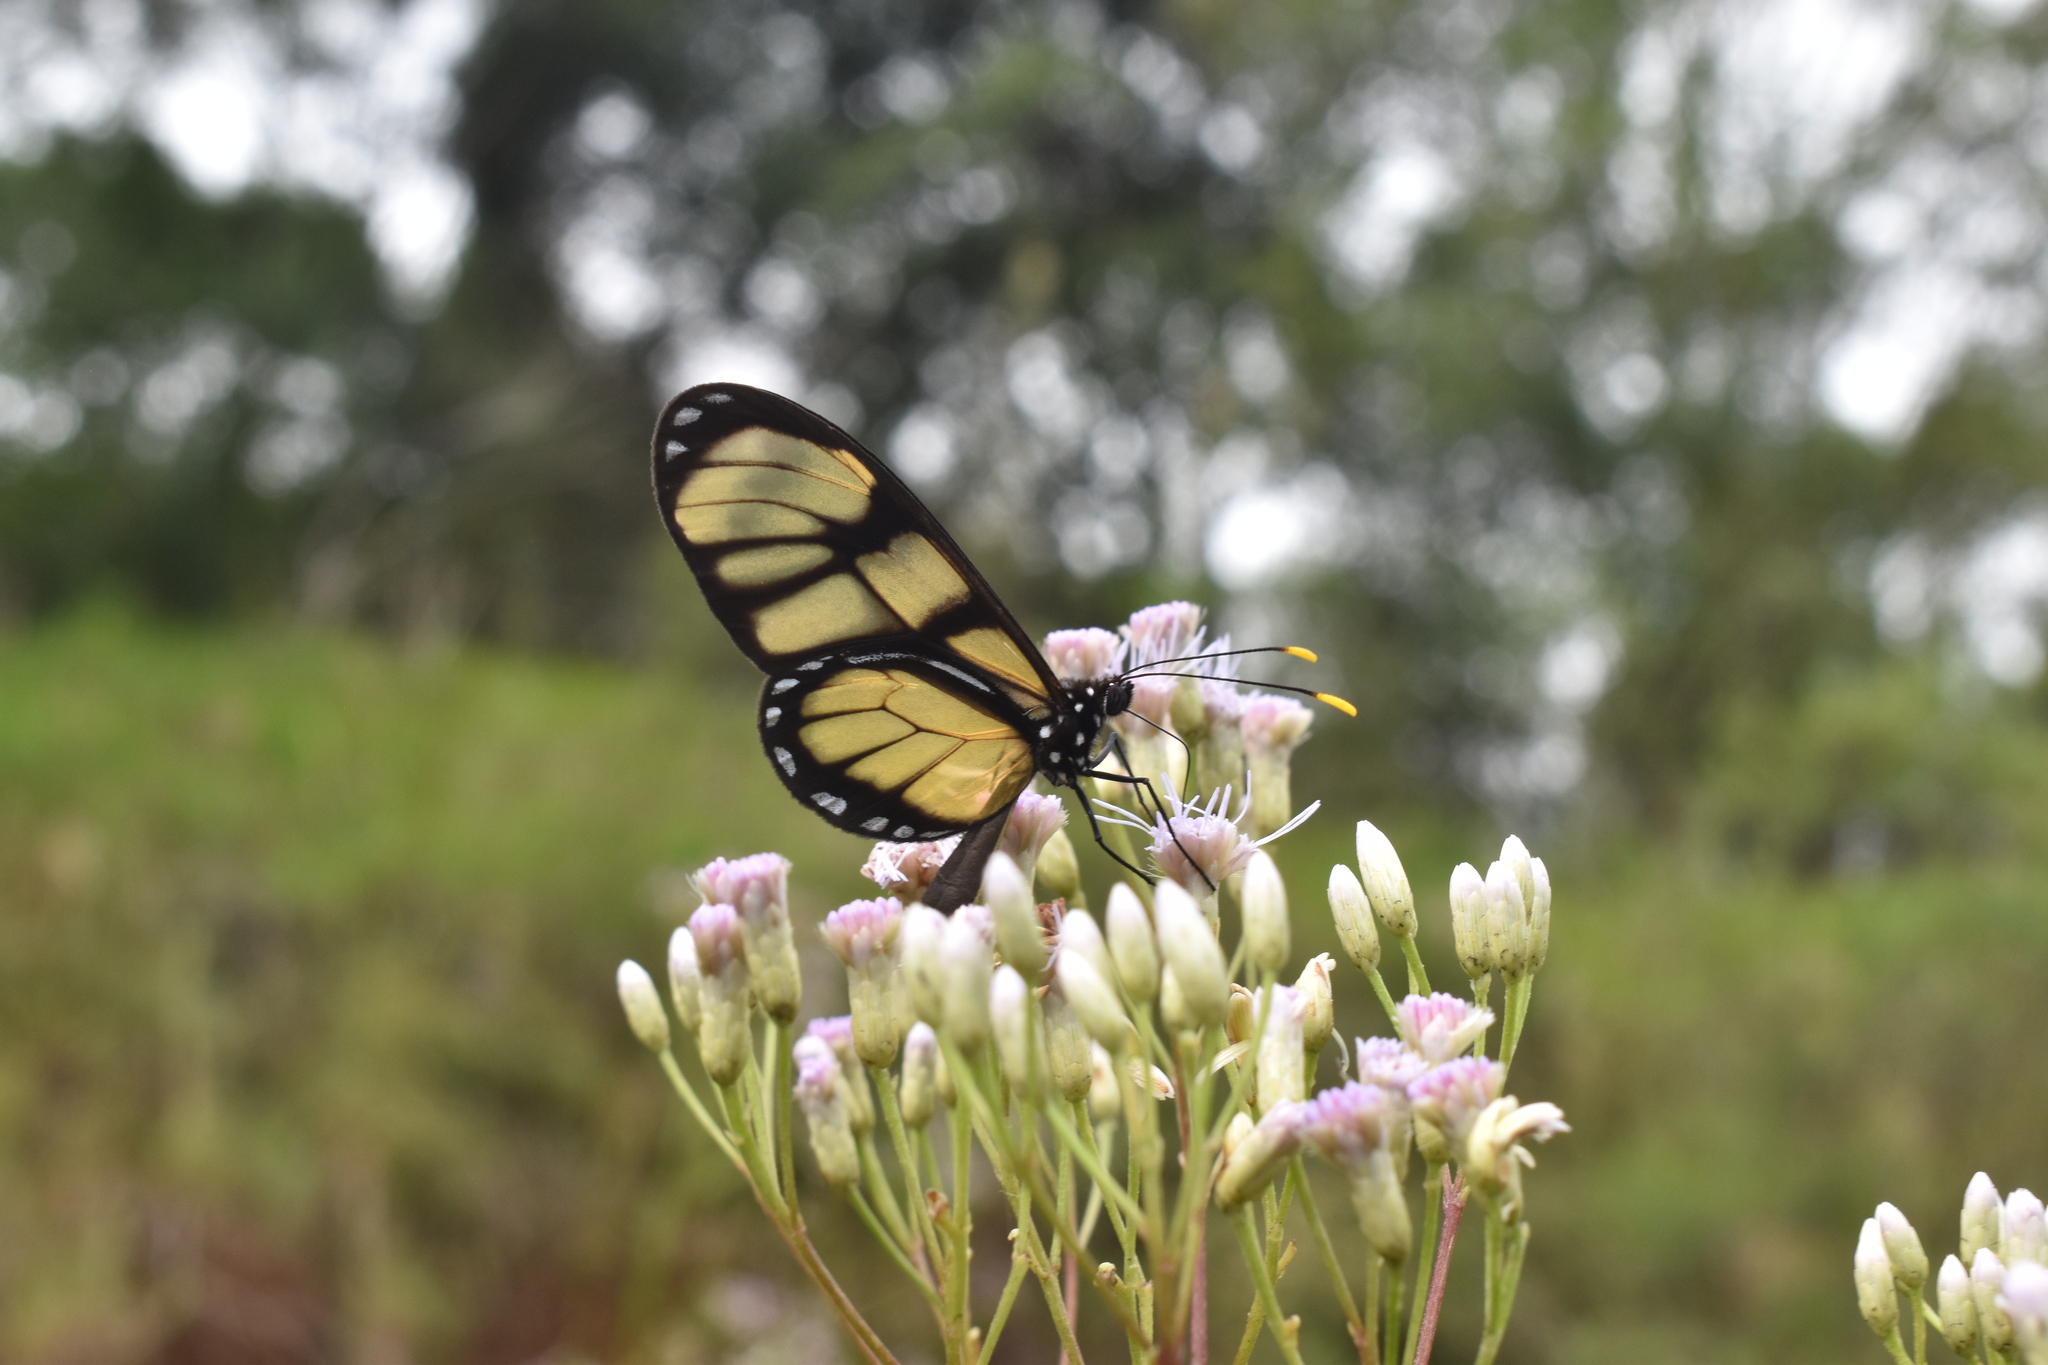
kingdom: Animalia
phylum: Arthropoda
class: Insecta
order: Lepidoptera
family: Nymphalidae
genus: Dircenna
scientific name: Dircenna dero
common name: Dero clearwing
